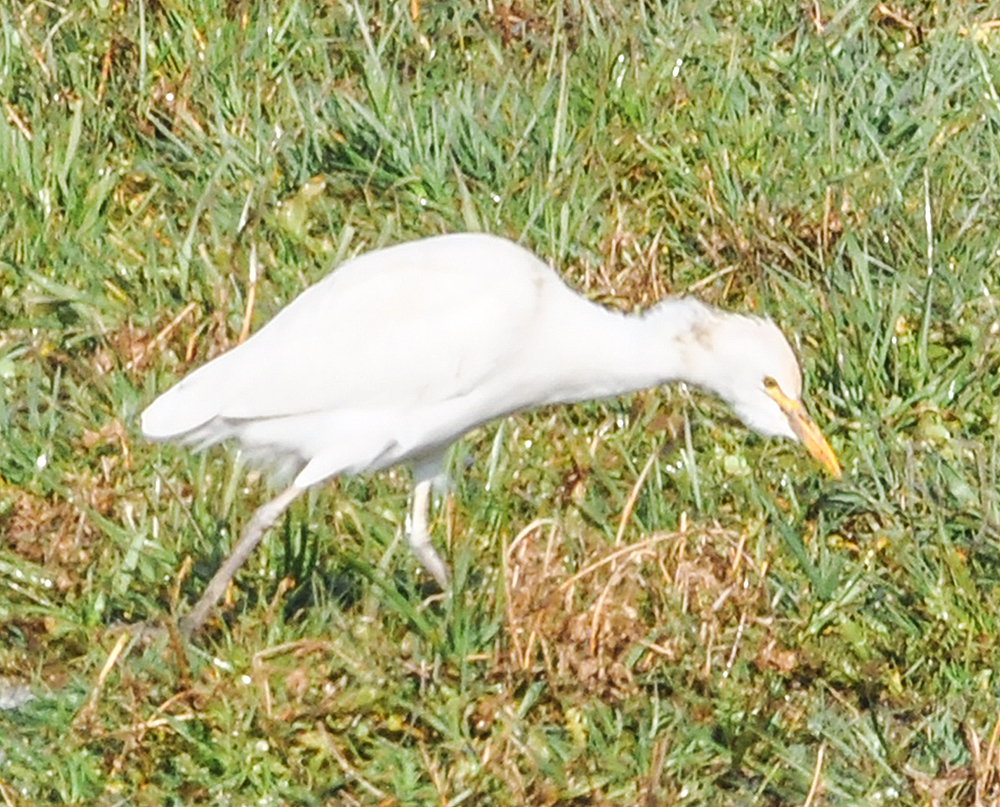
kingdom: Animalia
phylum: Chordata
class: Aves
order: Pelecaniformes
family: Ardeidae
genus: Bubulcus
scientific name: Bubulcus ibis
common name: Cattle egret
